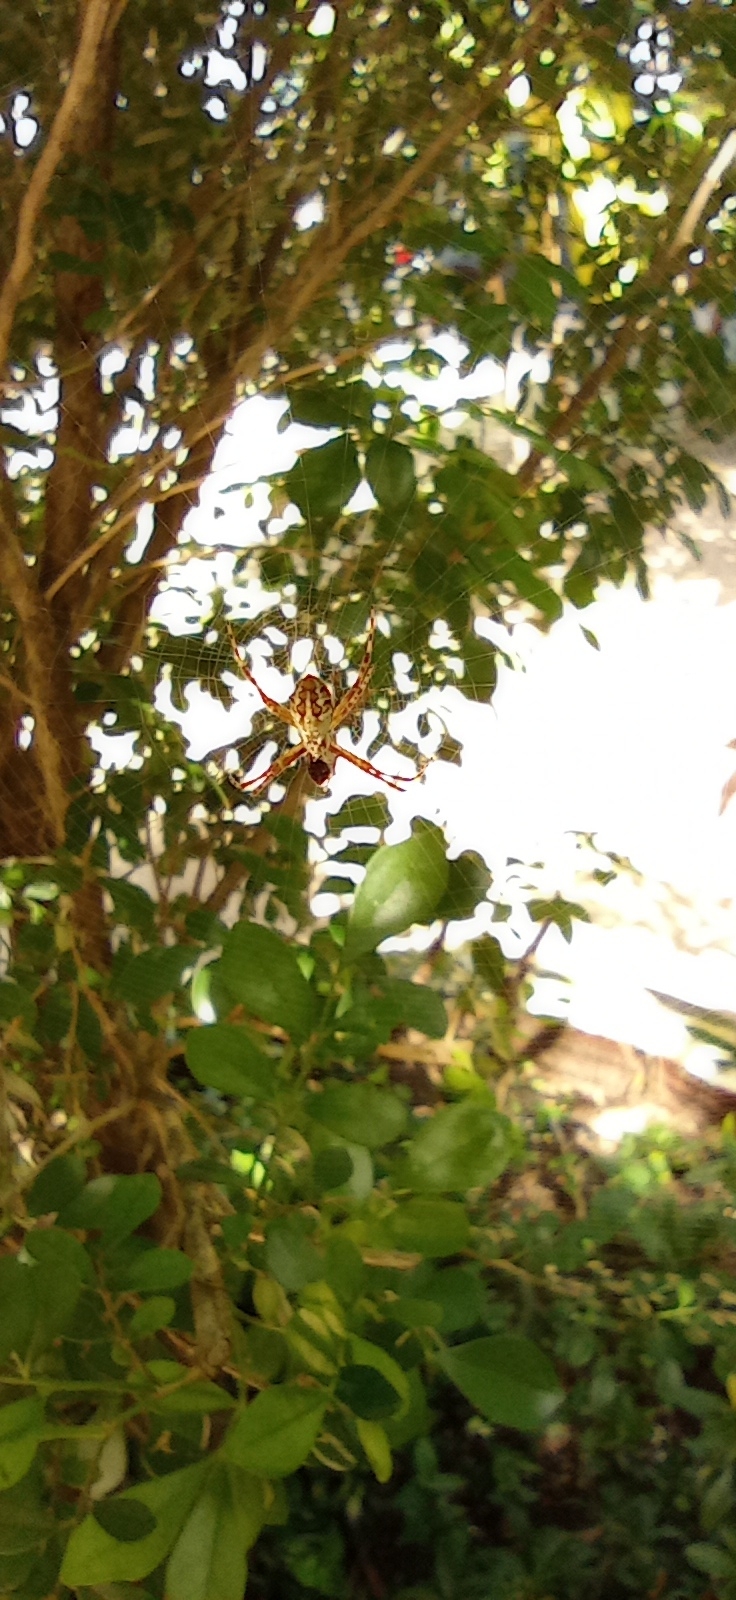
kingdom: Animalia
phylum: Arthropoda
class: Arachnida
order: Araneae
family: Araneidae
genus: Argiope
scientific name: Argiope argentata
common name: Orb weavers
